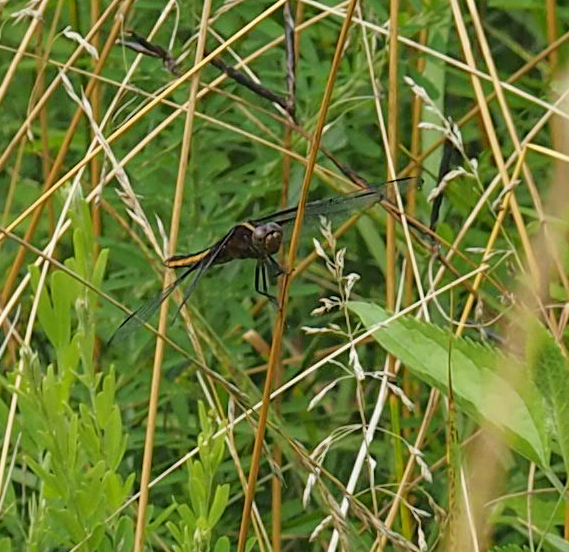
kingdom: Animalia
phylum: Arthropoda
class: Insecta
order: Odonata
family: Libellulidae
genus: Libellula
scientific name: Libellula luctuosa
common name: Widow skimmer
